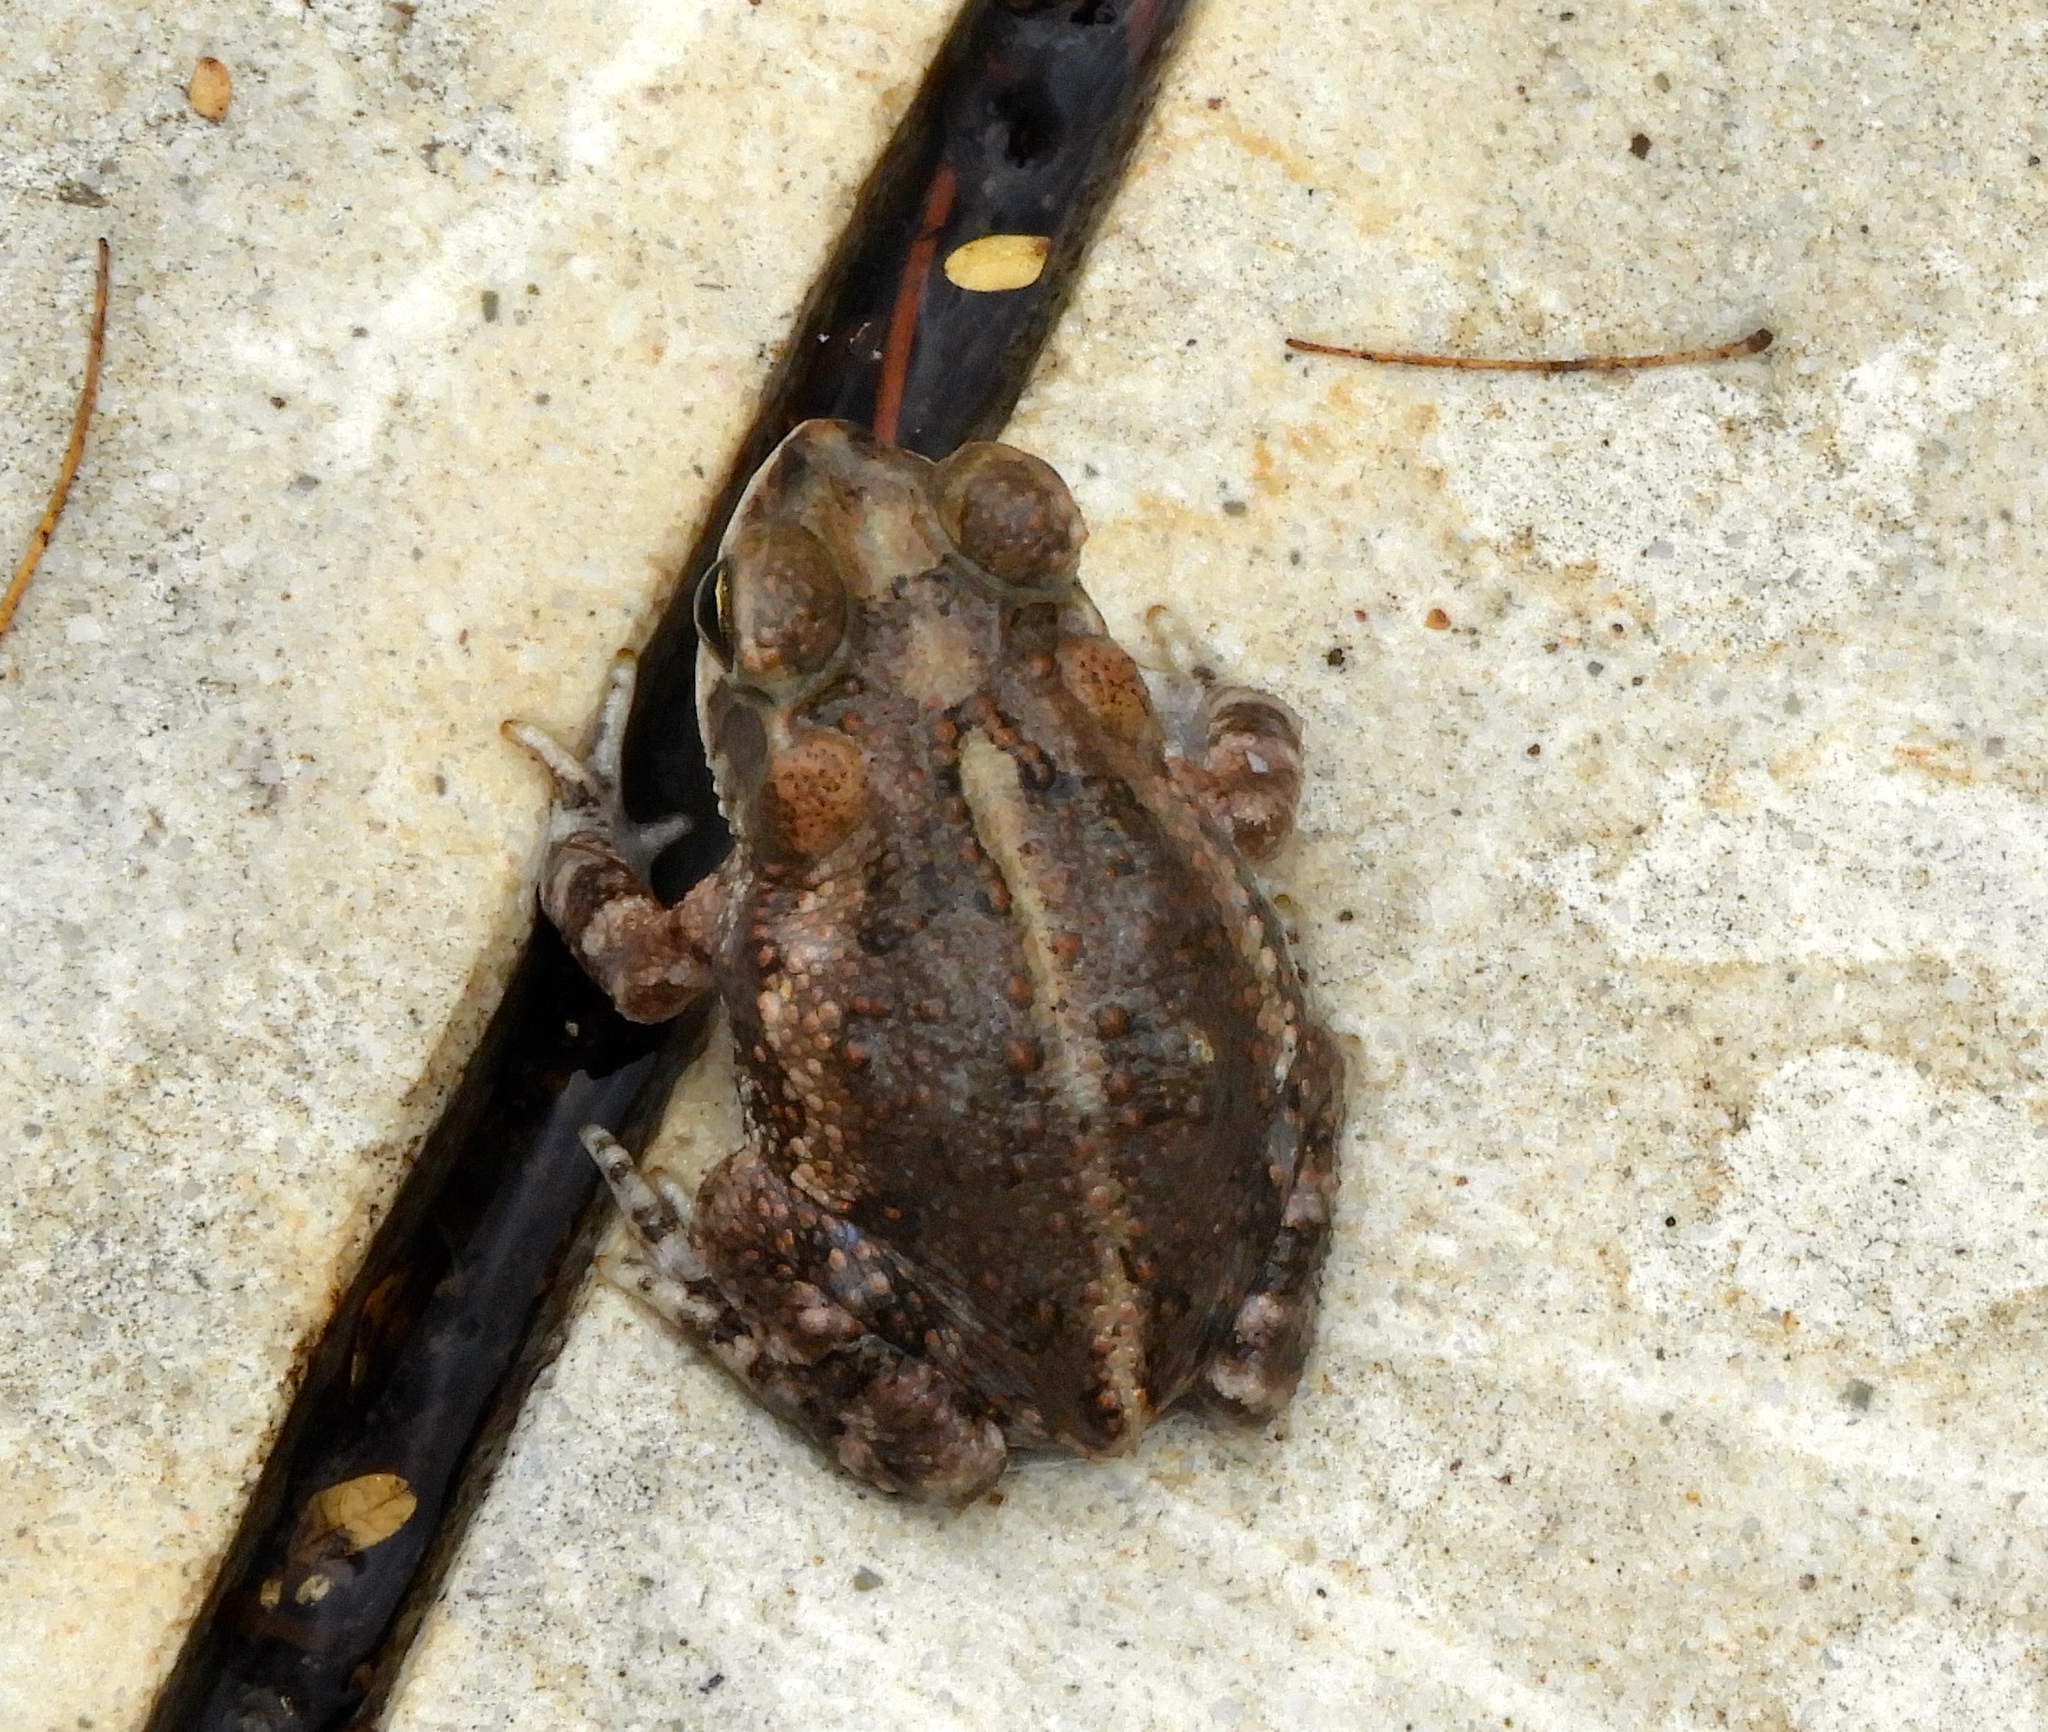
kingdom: Animalia
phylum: Chordata
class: Amphibia
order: Anura
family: Bufonidae
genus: Incilius
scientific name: Incilius marmoreus
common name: Marbled toad
